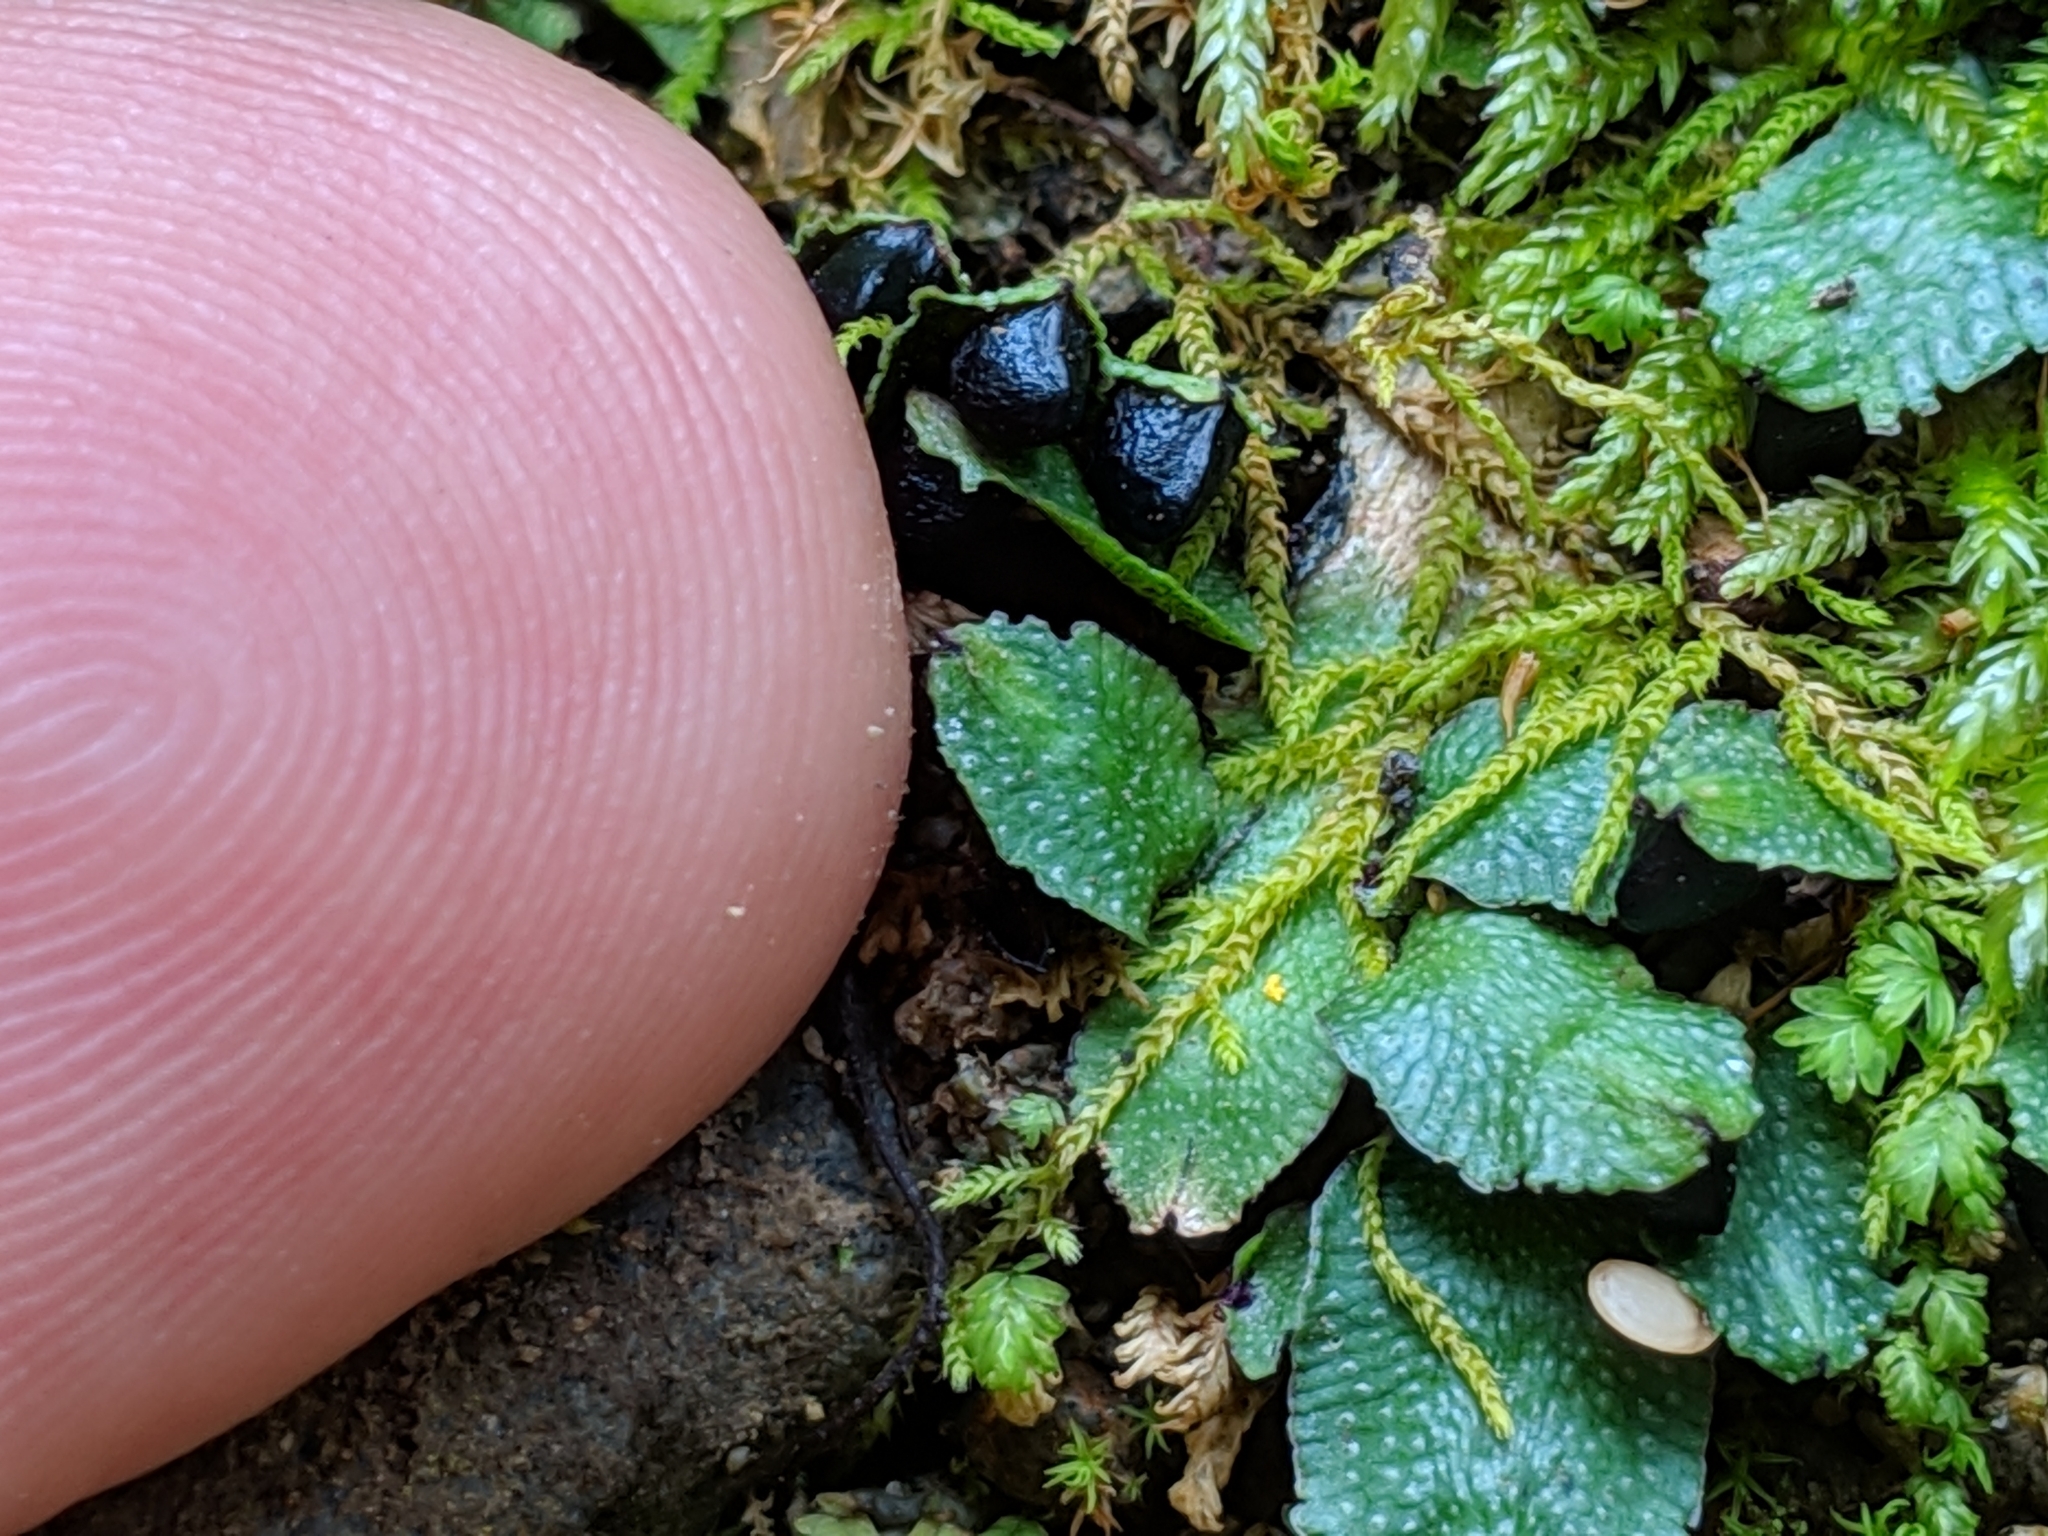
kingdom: Plantae
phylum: Marchantiophyta
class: Marchantiopsida
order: Marchantiales
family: Targioniaceae
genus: Targionia
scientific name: Targionia hypophylla
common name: Orobus-seed liverwort
